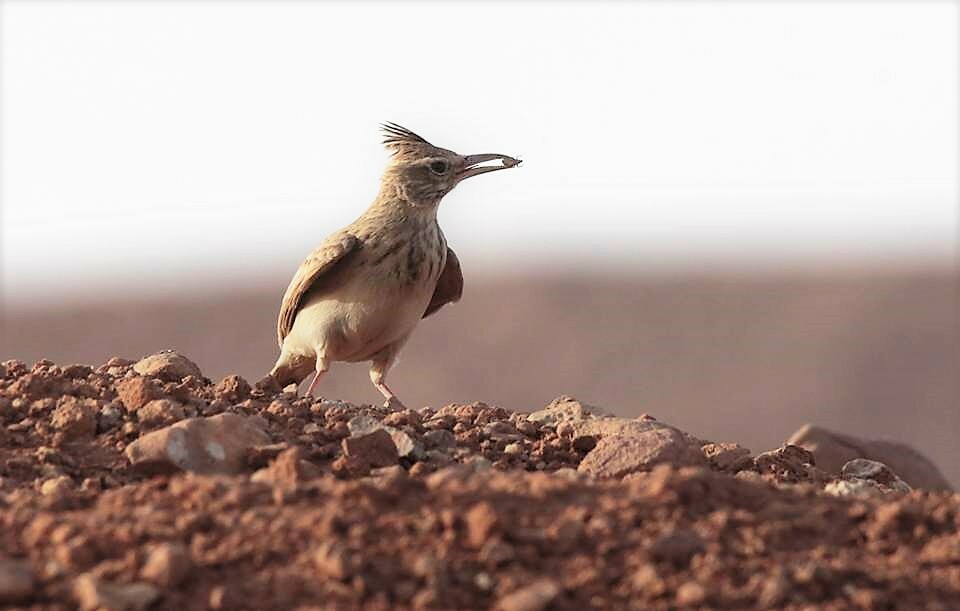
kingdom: Animalia
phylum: Chordata
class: Aves
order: Passeriformes
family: Alaudidae
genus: Galerida
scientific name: Galerida cristata
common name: Crested lark
